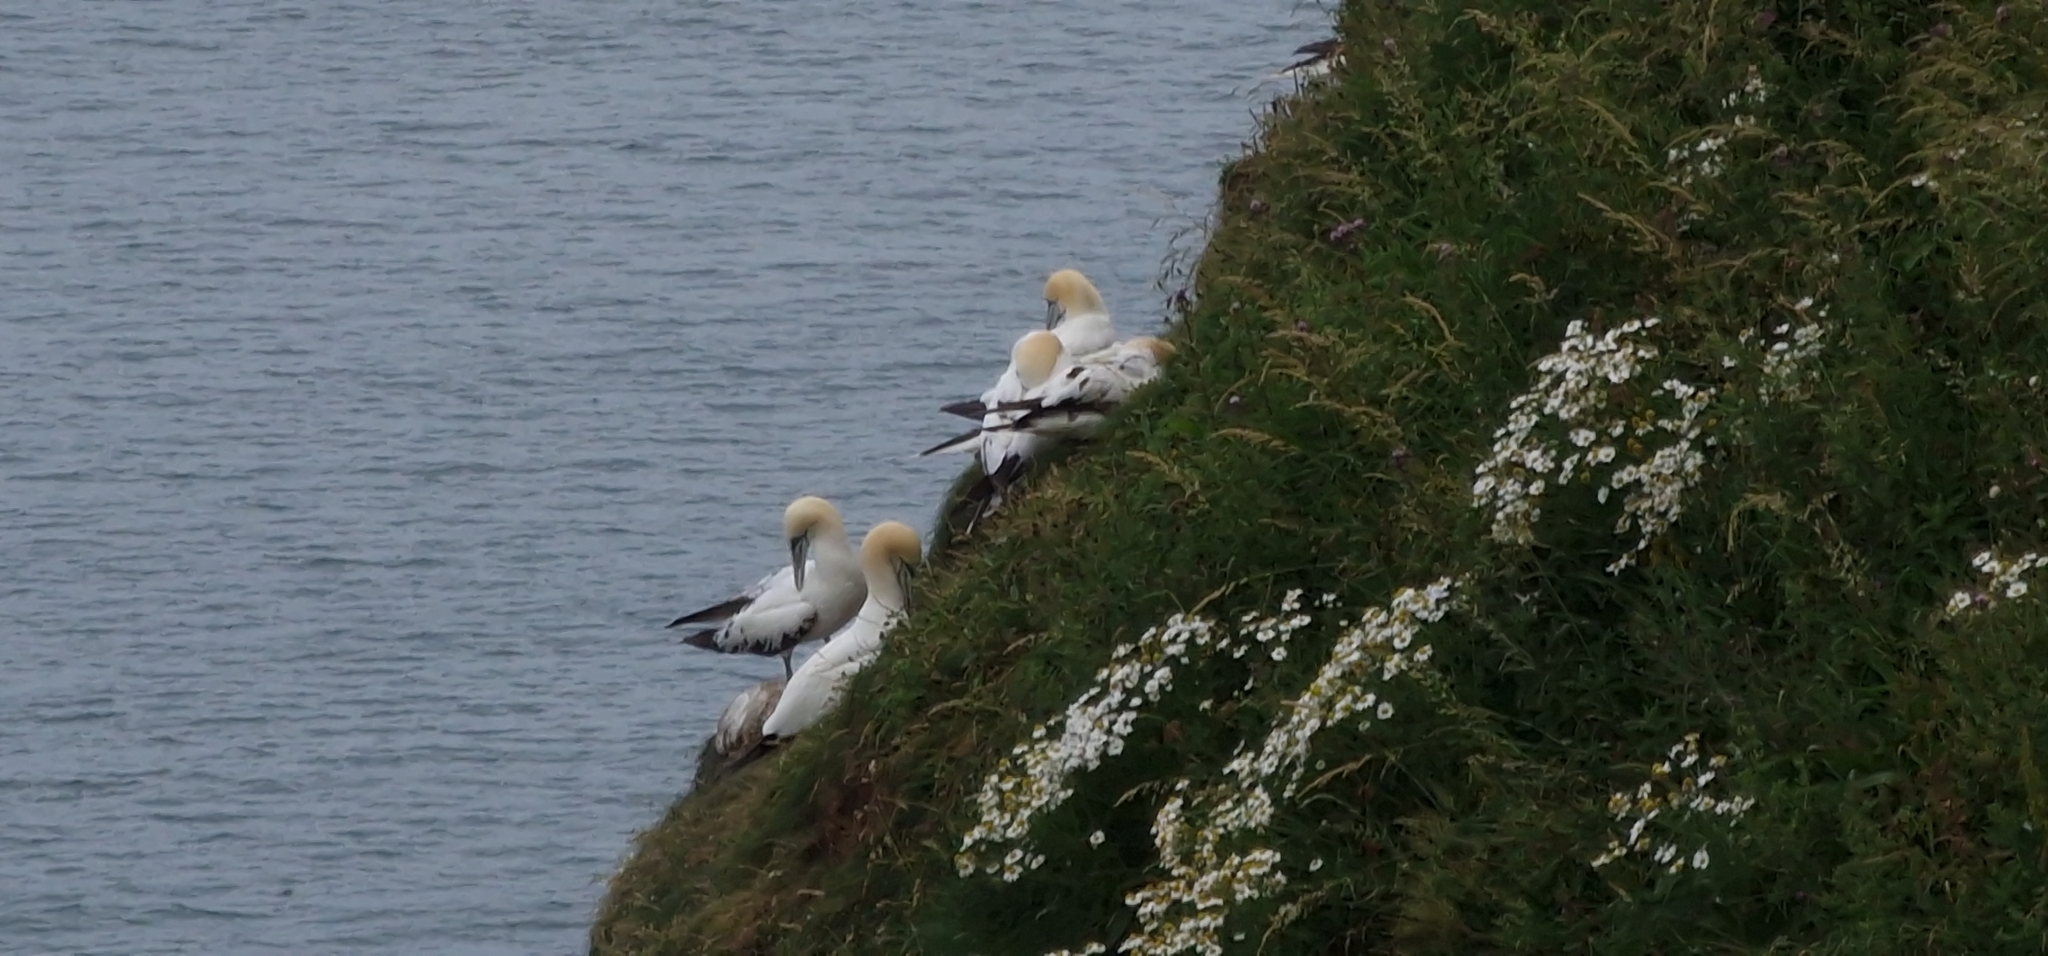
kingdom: Animalia
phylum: Chordata
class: Aves
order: Suliformes
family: Sulidae
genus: Morus
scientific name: Morus bassanus
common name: Northern gannet
